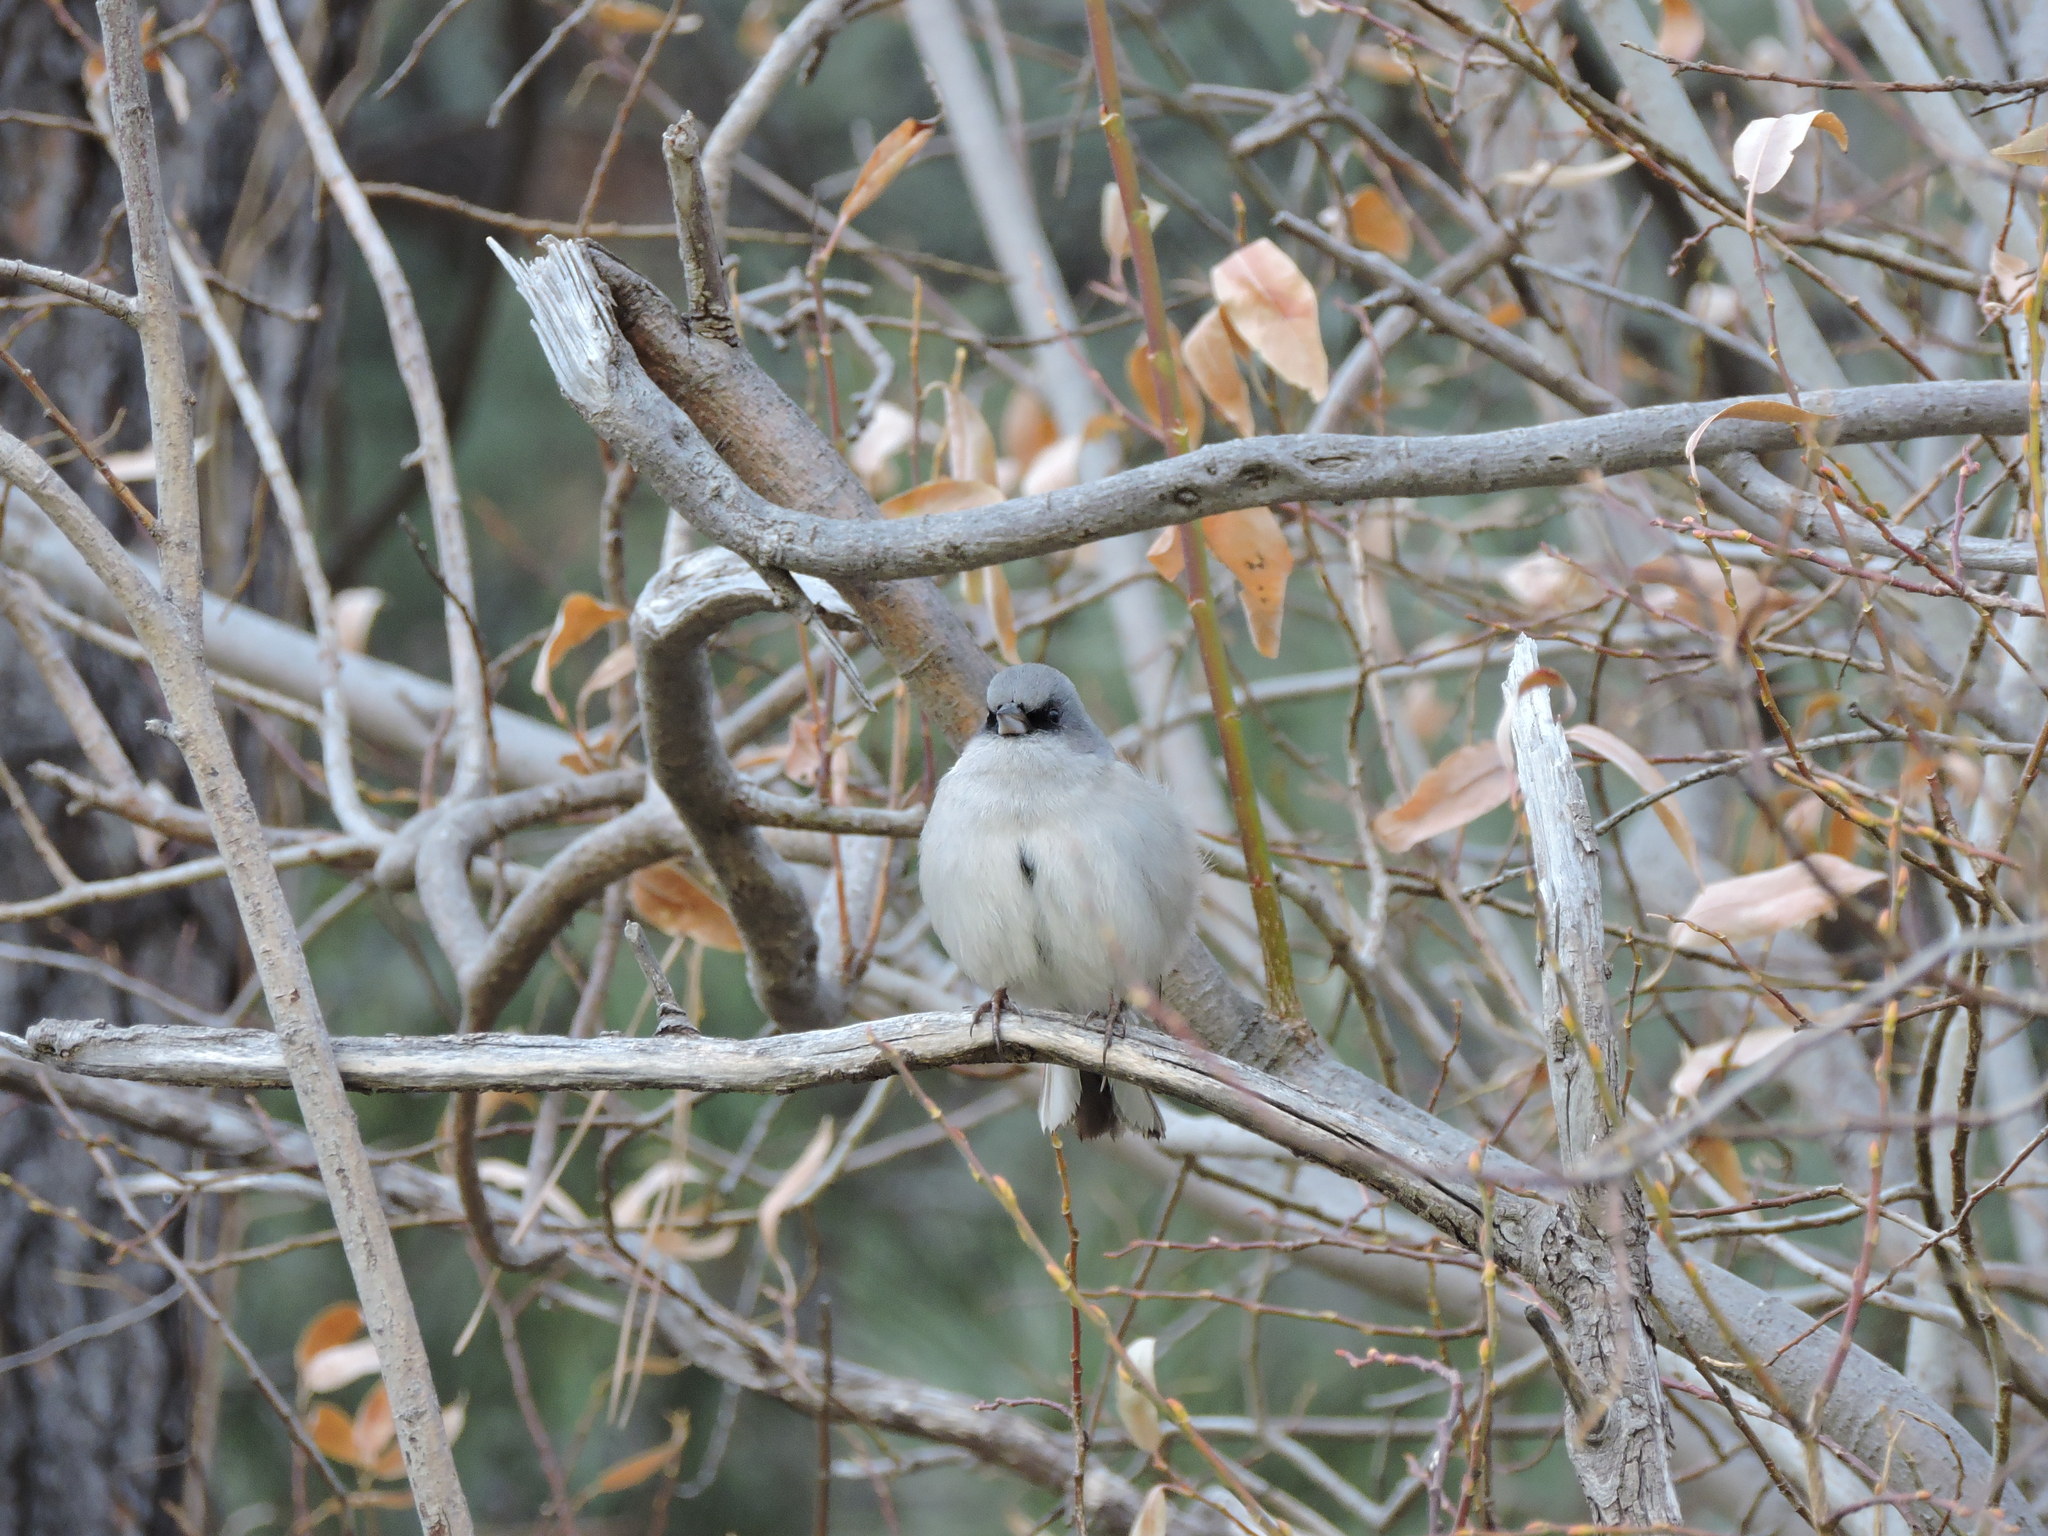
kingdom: Animalia
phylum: Chordata
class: Aves
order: Passeriformes
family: Passerellidae
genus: Junco
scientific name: Junco hyemalis
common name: Dark-eyed junco
